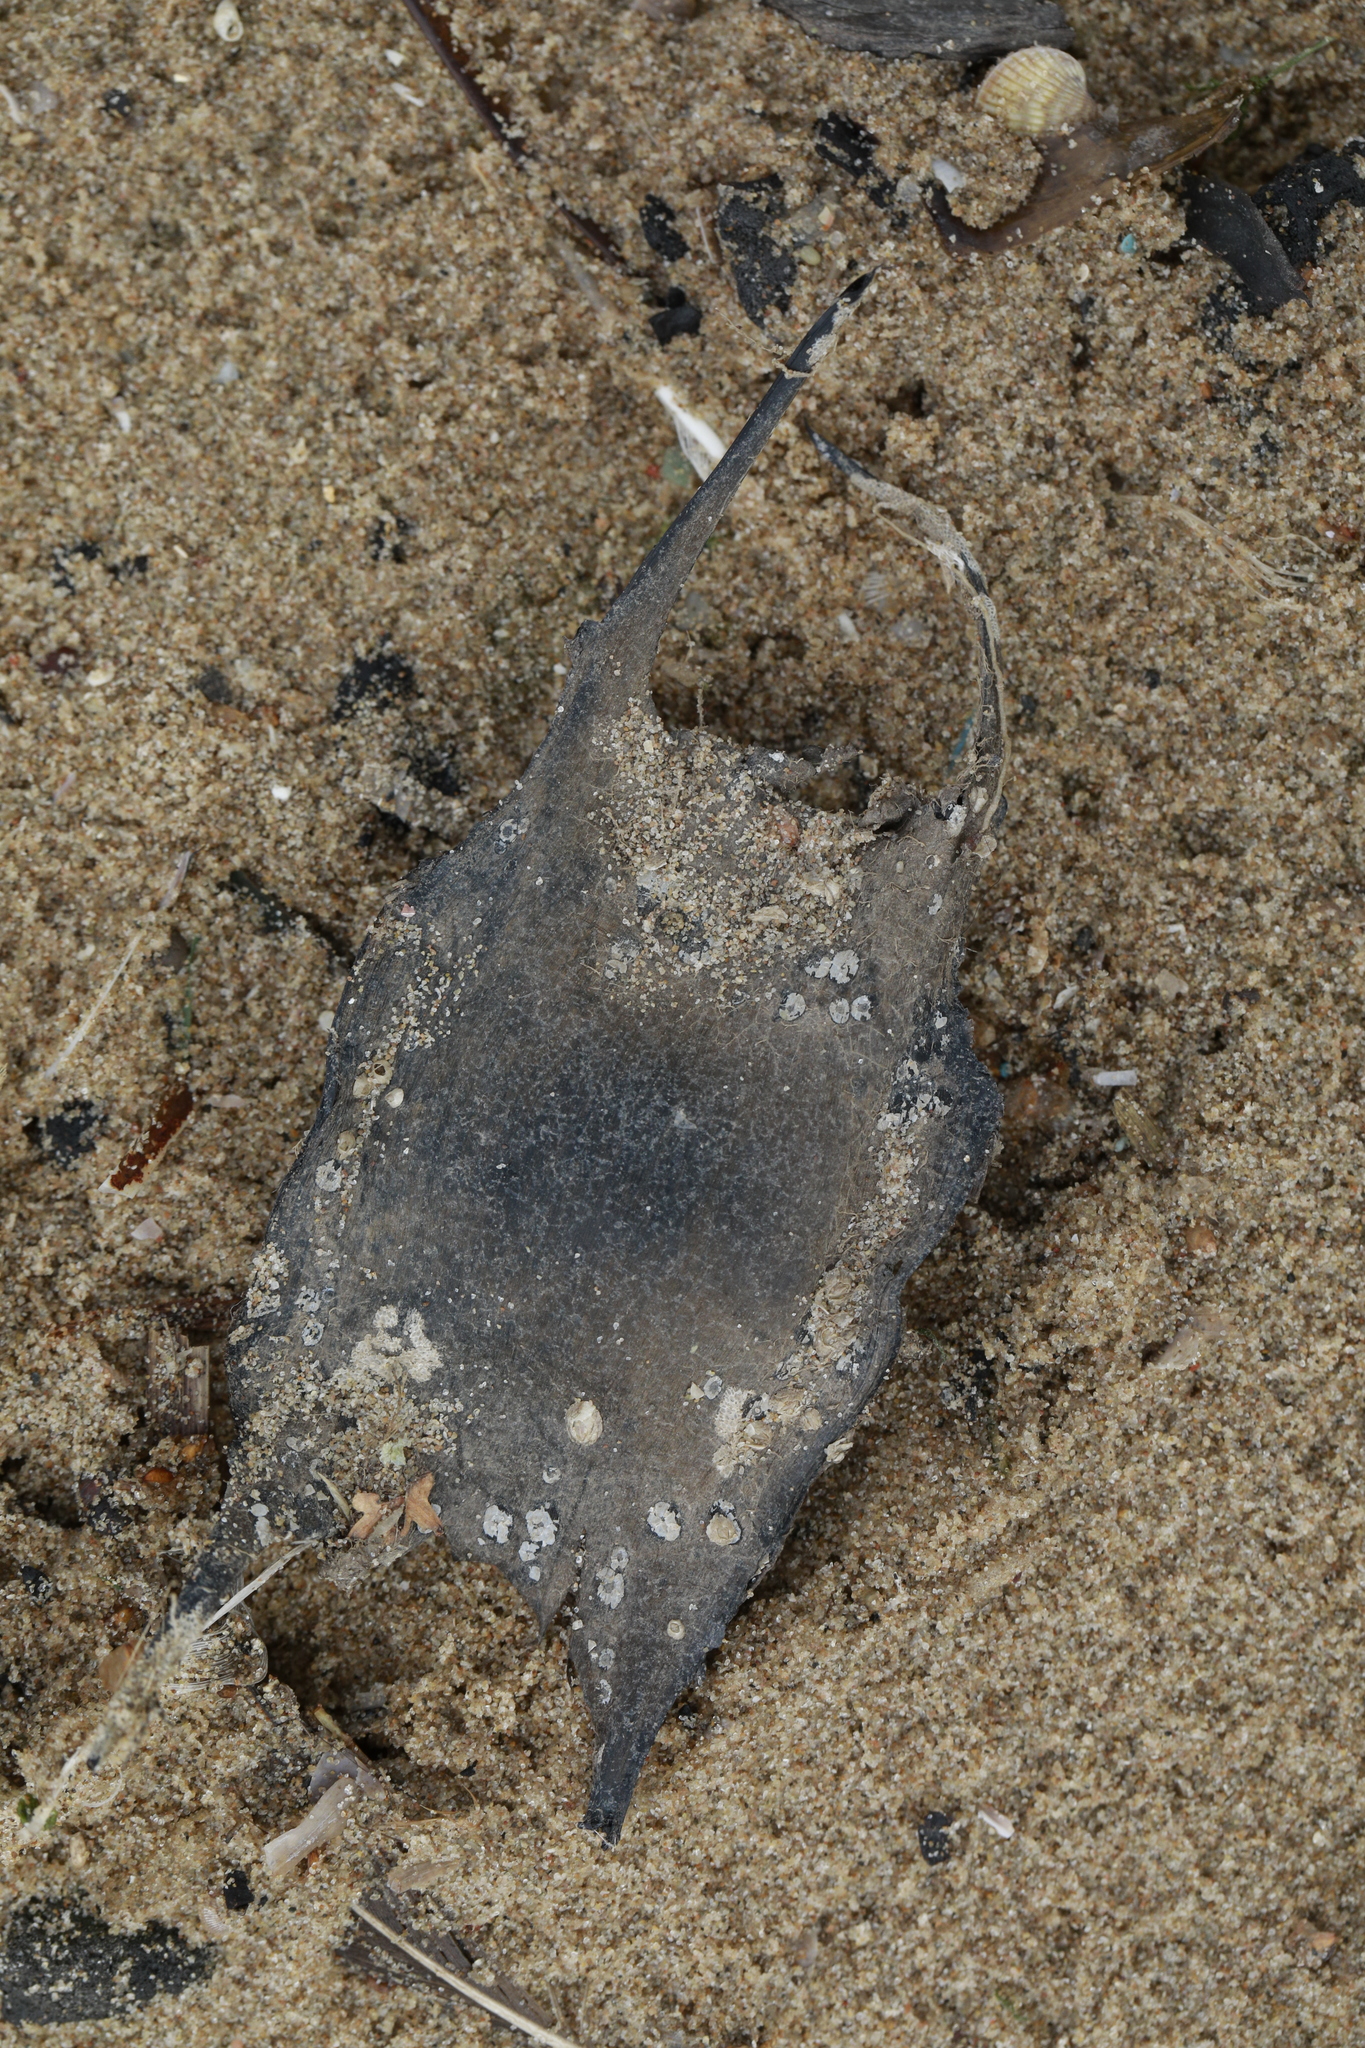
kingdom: Animalia
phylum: Chordata
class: Elasmobranchii
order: Rajiformes
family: Rajidae
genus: Raja
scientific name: Raja clavata
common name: Thornback ray
